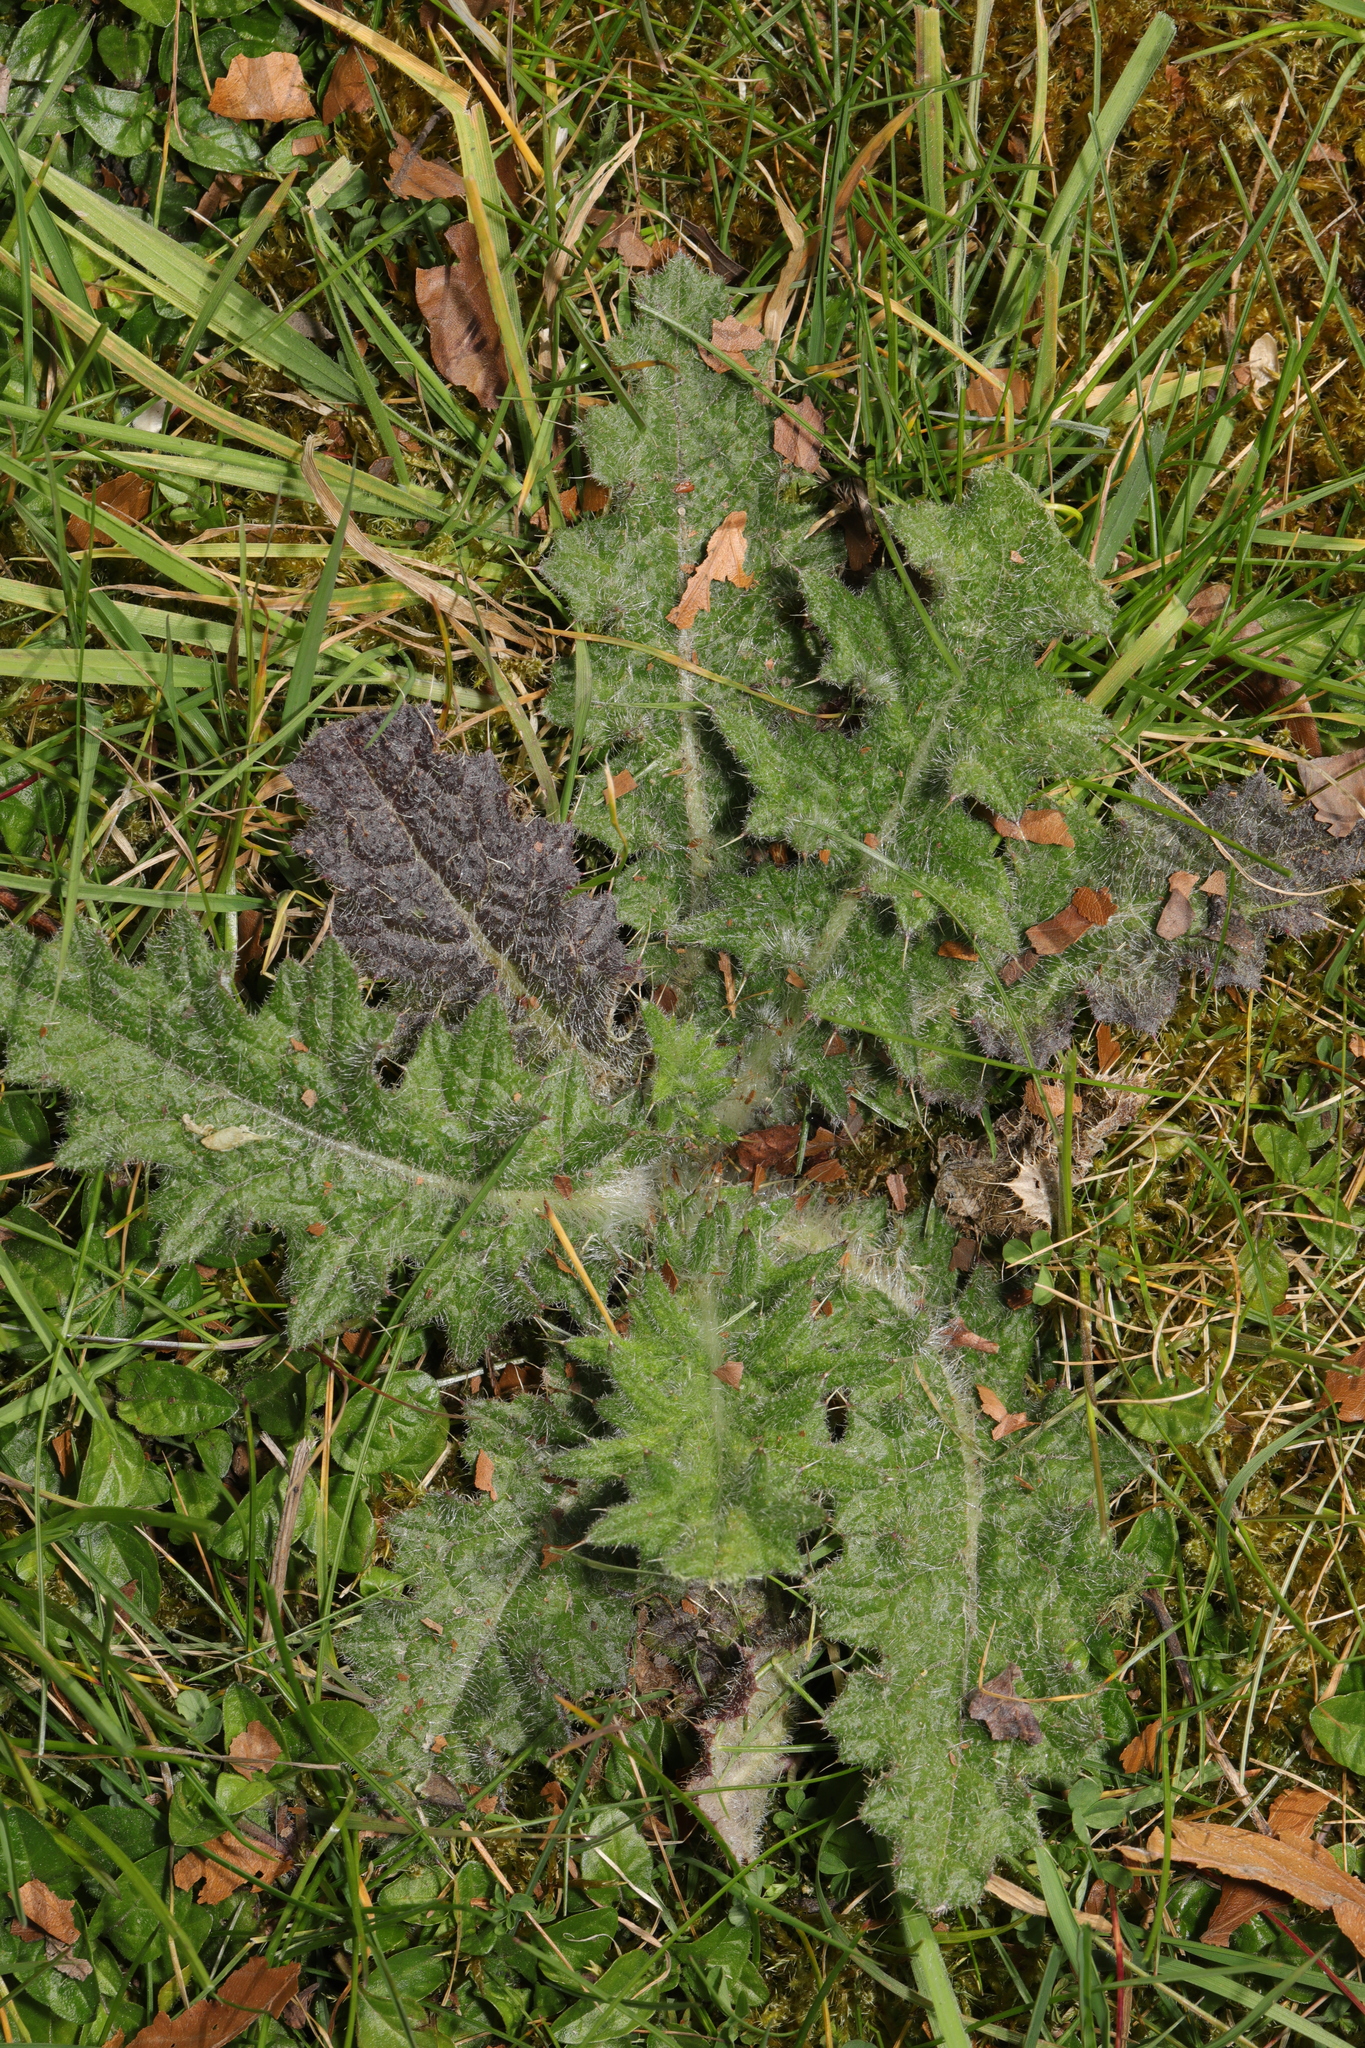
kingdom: Plantae
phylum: Tracheophyta
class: Magnoliopsida
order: Asterales
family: Asteraceae
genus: Cirsium
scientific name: Cirsium vulgare
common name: Bull thistle
